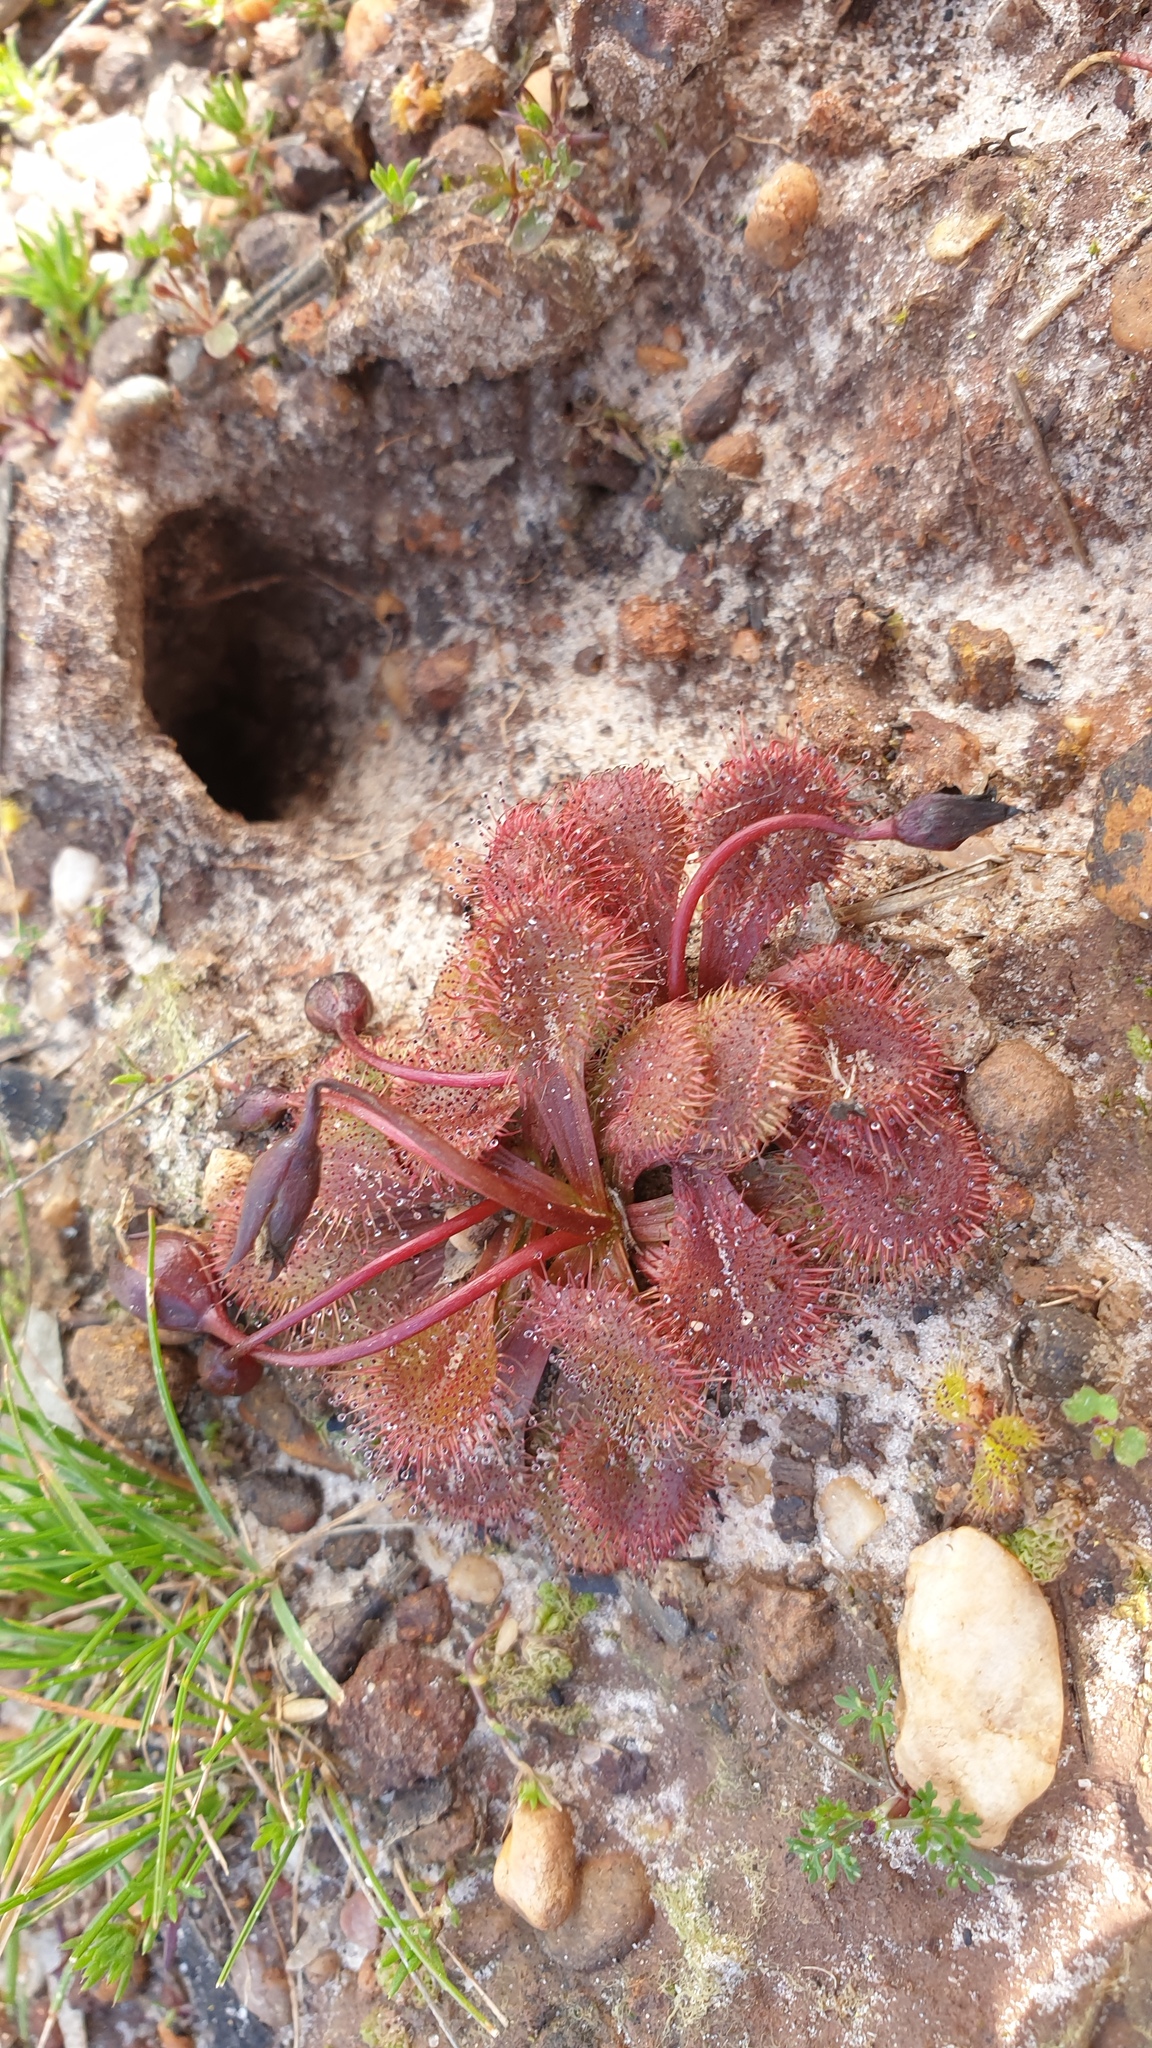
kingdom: Plantae
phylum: Tracheophyta
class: Magnoliopsida
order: Caryophyllales
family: Droseraceae
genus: Drosera
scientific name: Drosera whittakeri
